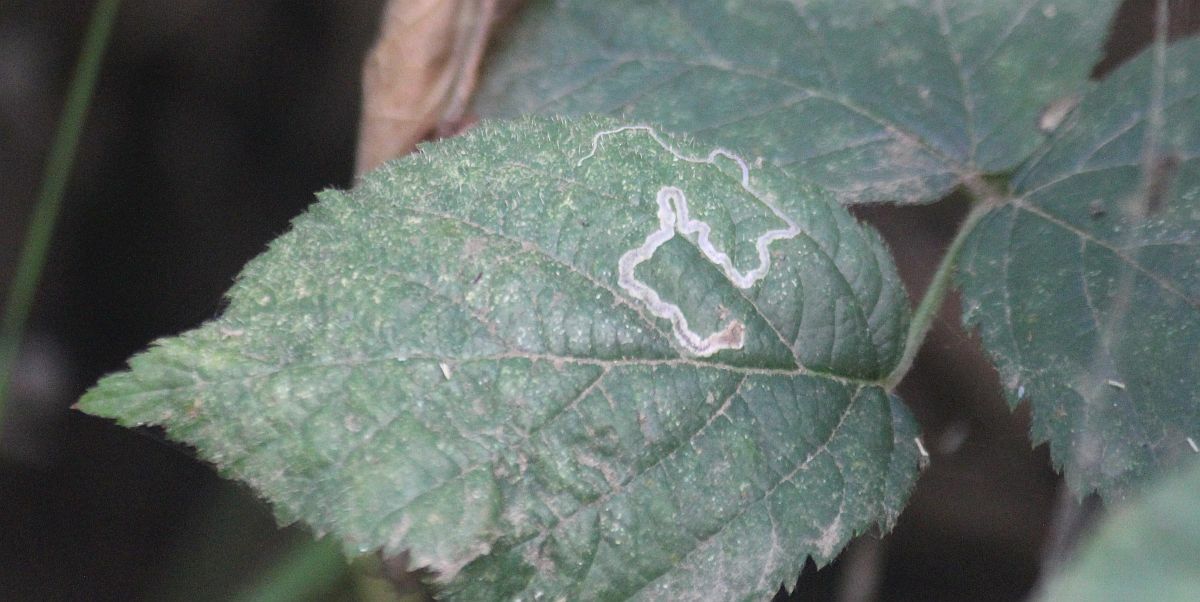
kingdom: Animalia
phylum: Arthropoda
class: Insecta
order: Lepidoptera
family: Nepticulidae
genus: Stigmella
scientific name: Stigmella aurella
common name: Golden pigmy
